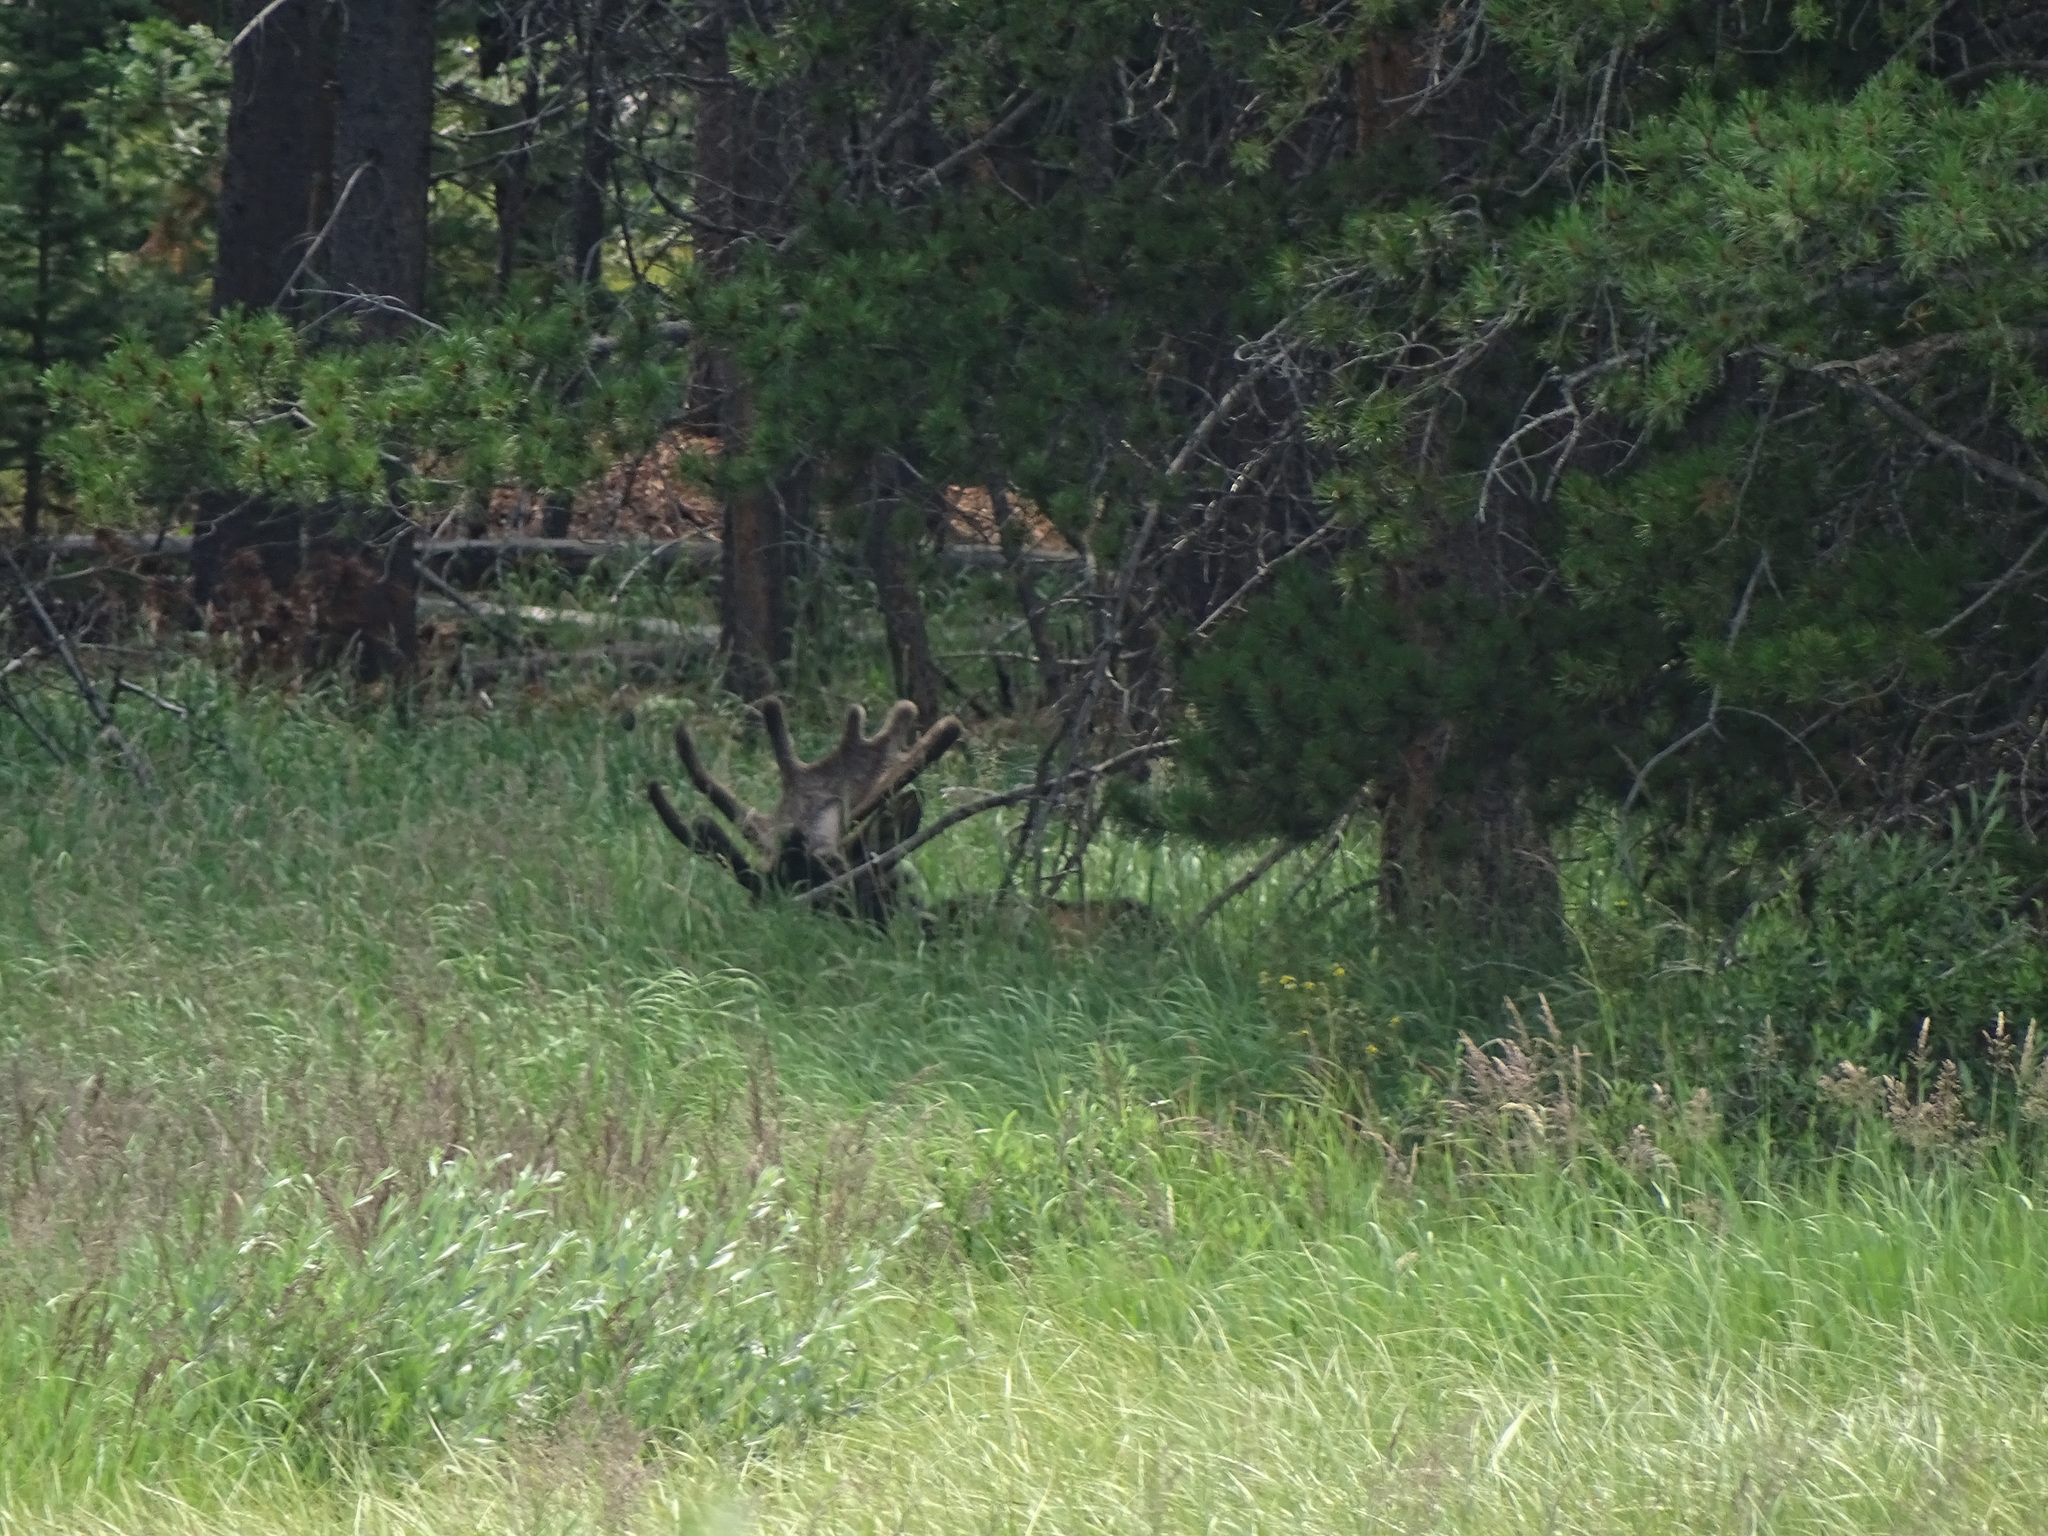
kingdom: Animalia
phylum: Chordata
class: Mammalia
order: Artiodactyla
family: Cervidae
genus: Alces
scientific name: Alces alces
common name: Moose
